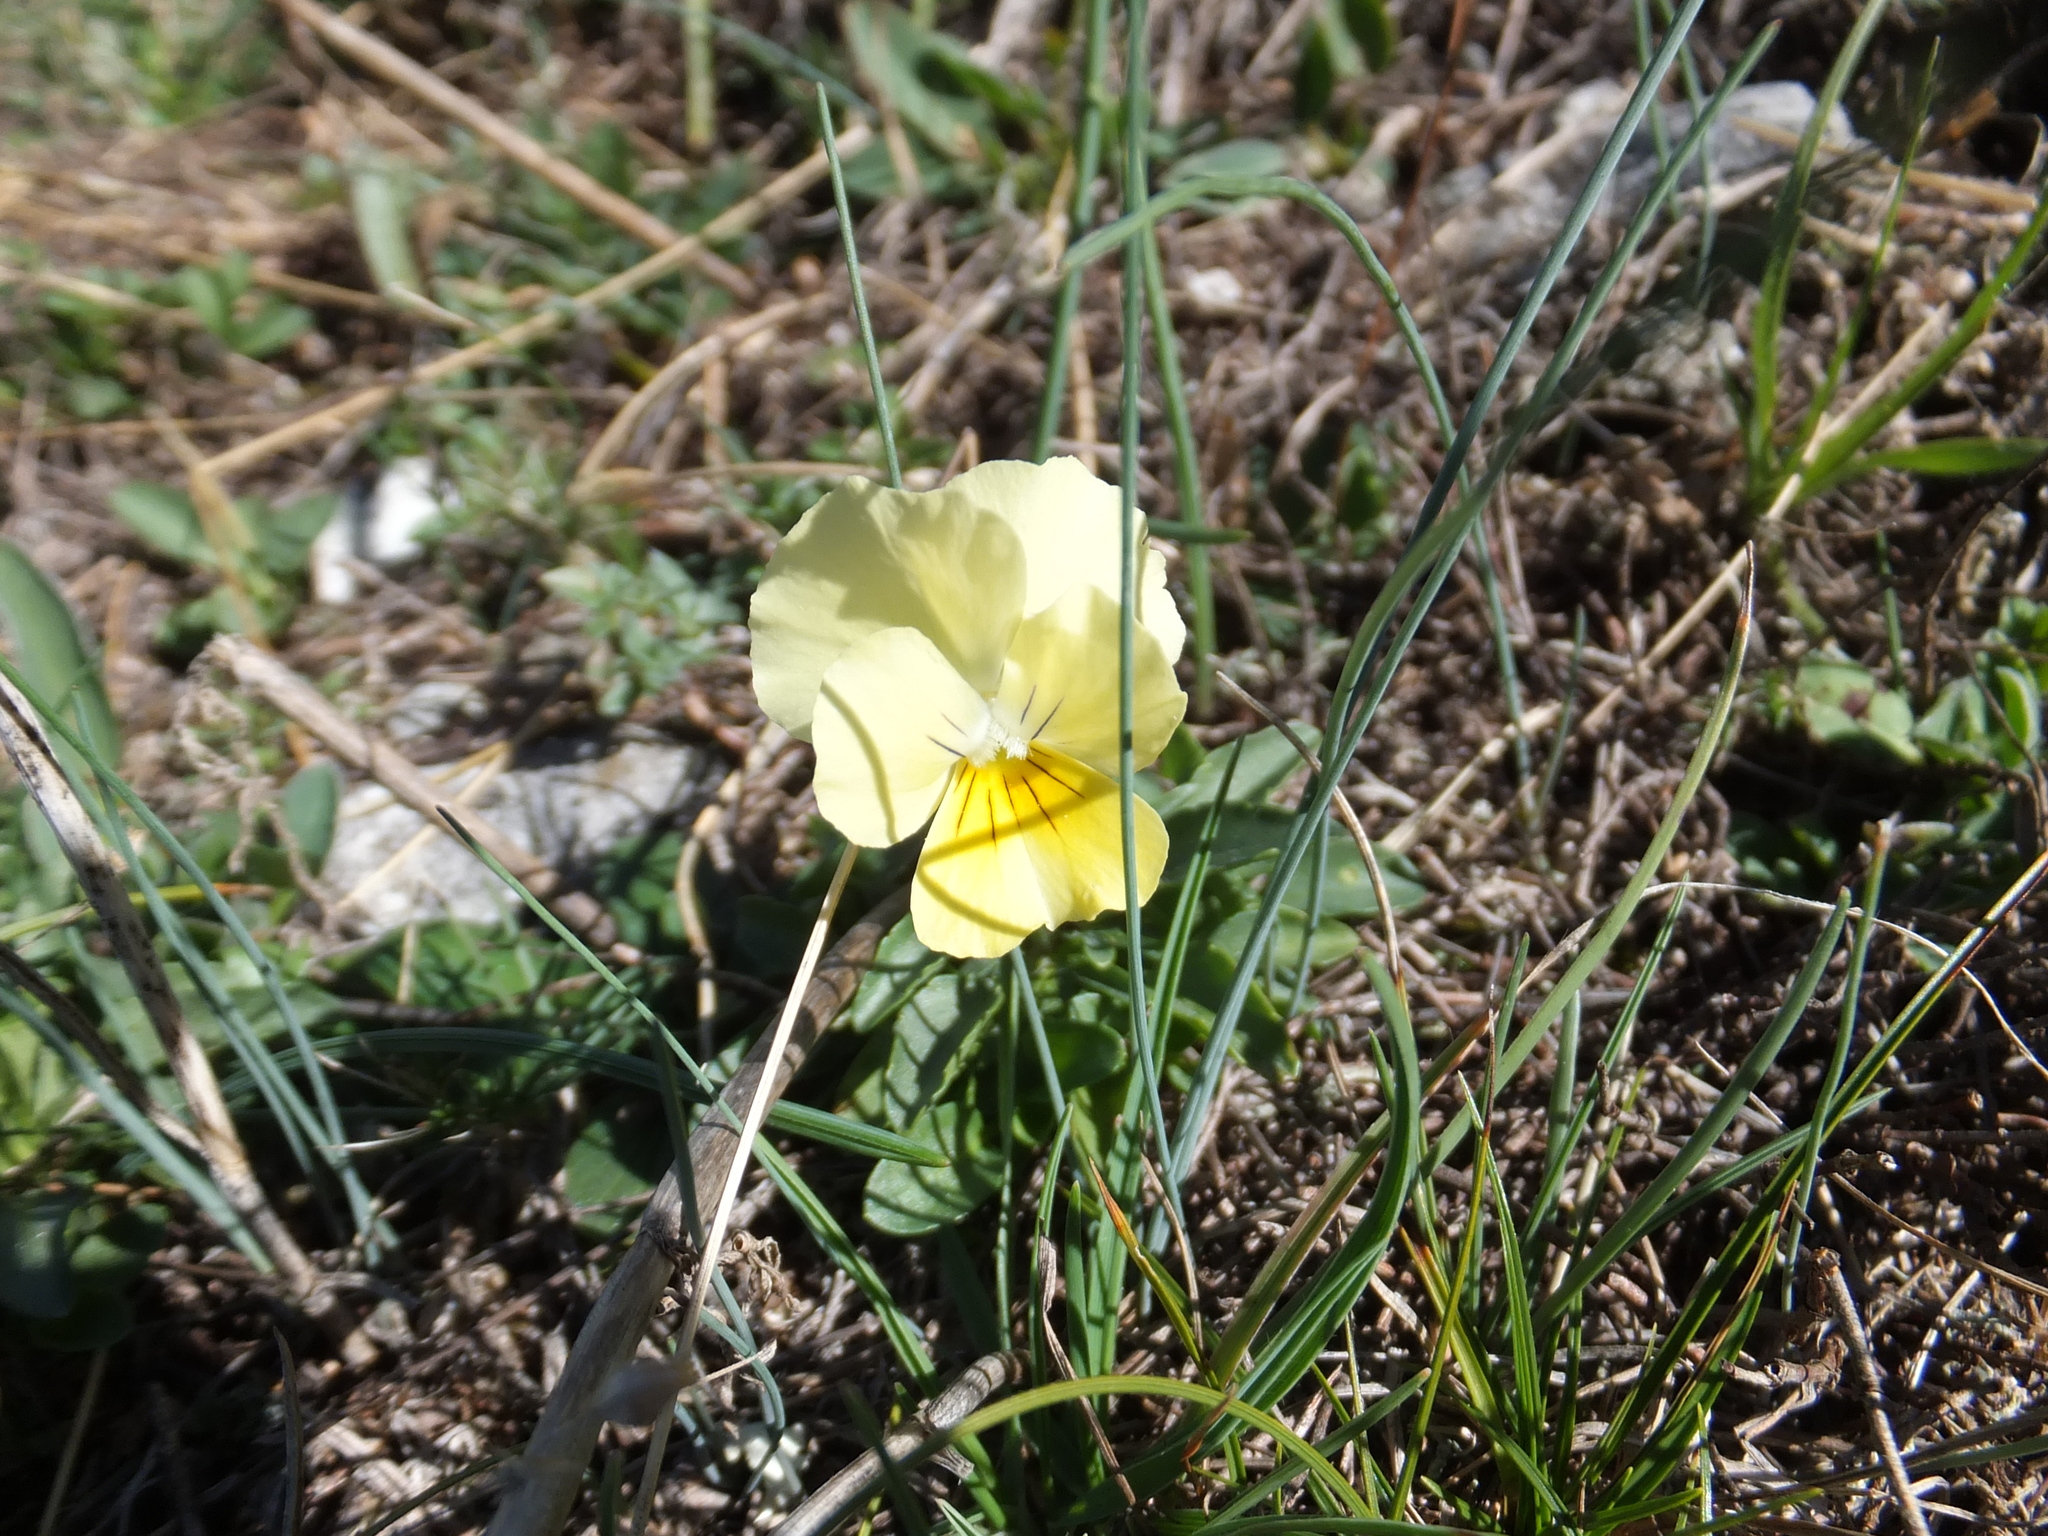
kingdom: Plantae
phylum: Tracheophyta
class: Magnoliopsida
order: Malpighiales
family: Violaceae
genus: Viola
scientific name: Viola eugeniae
